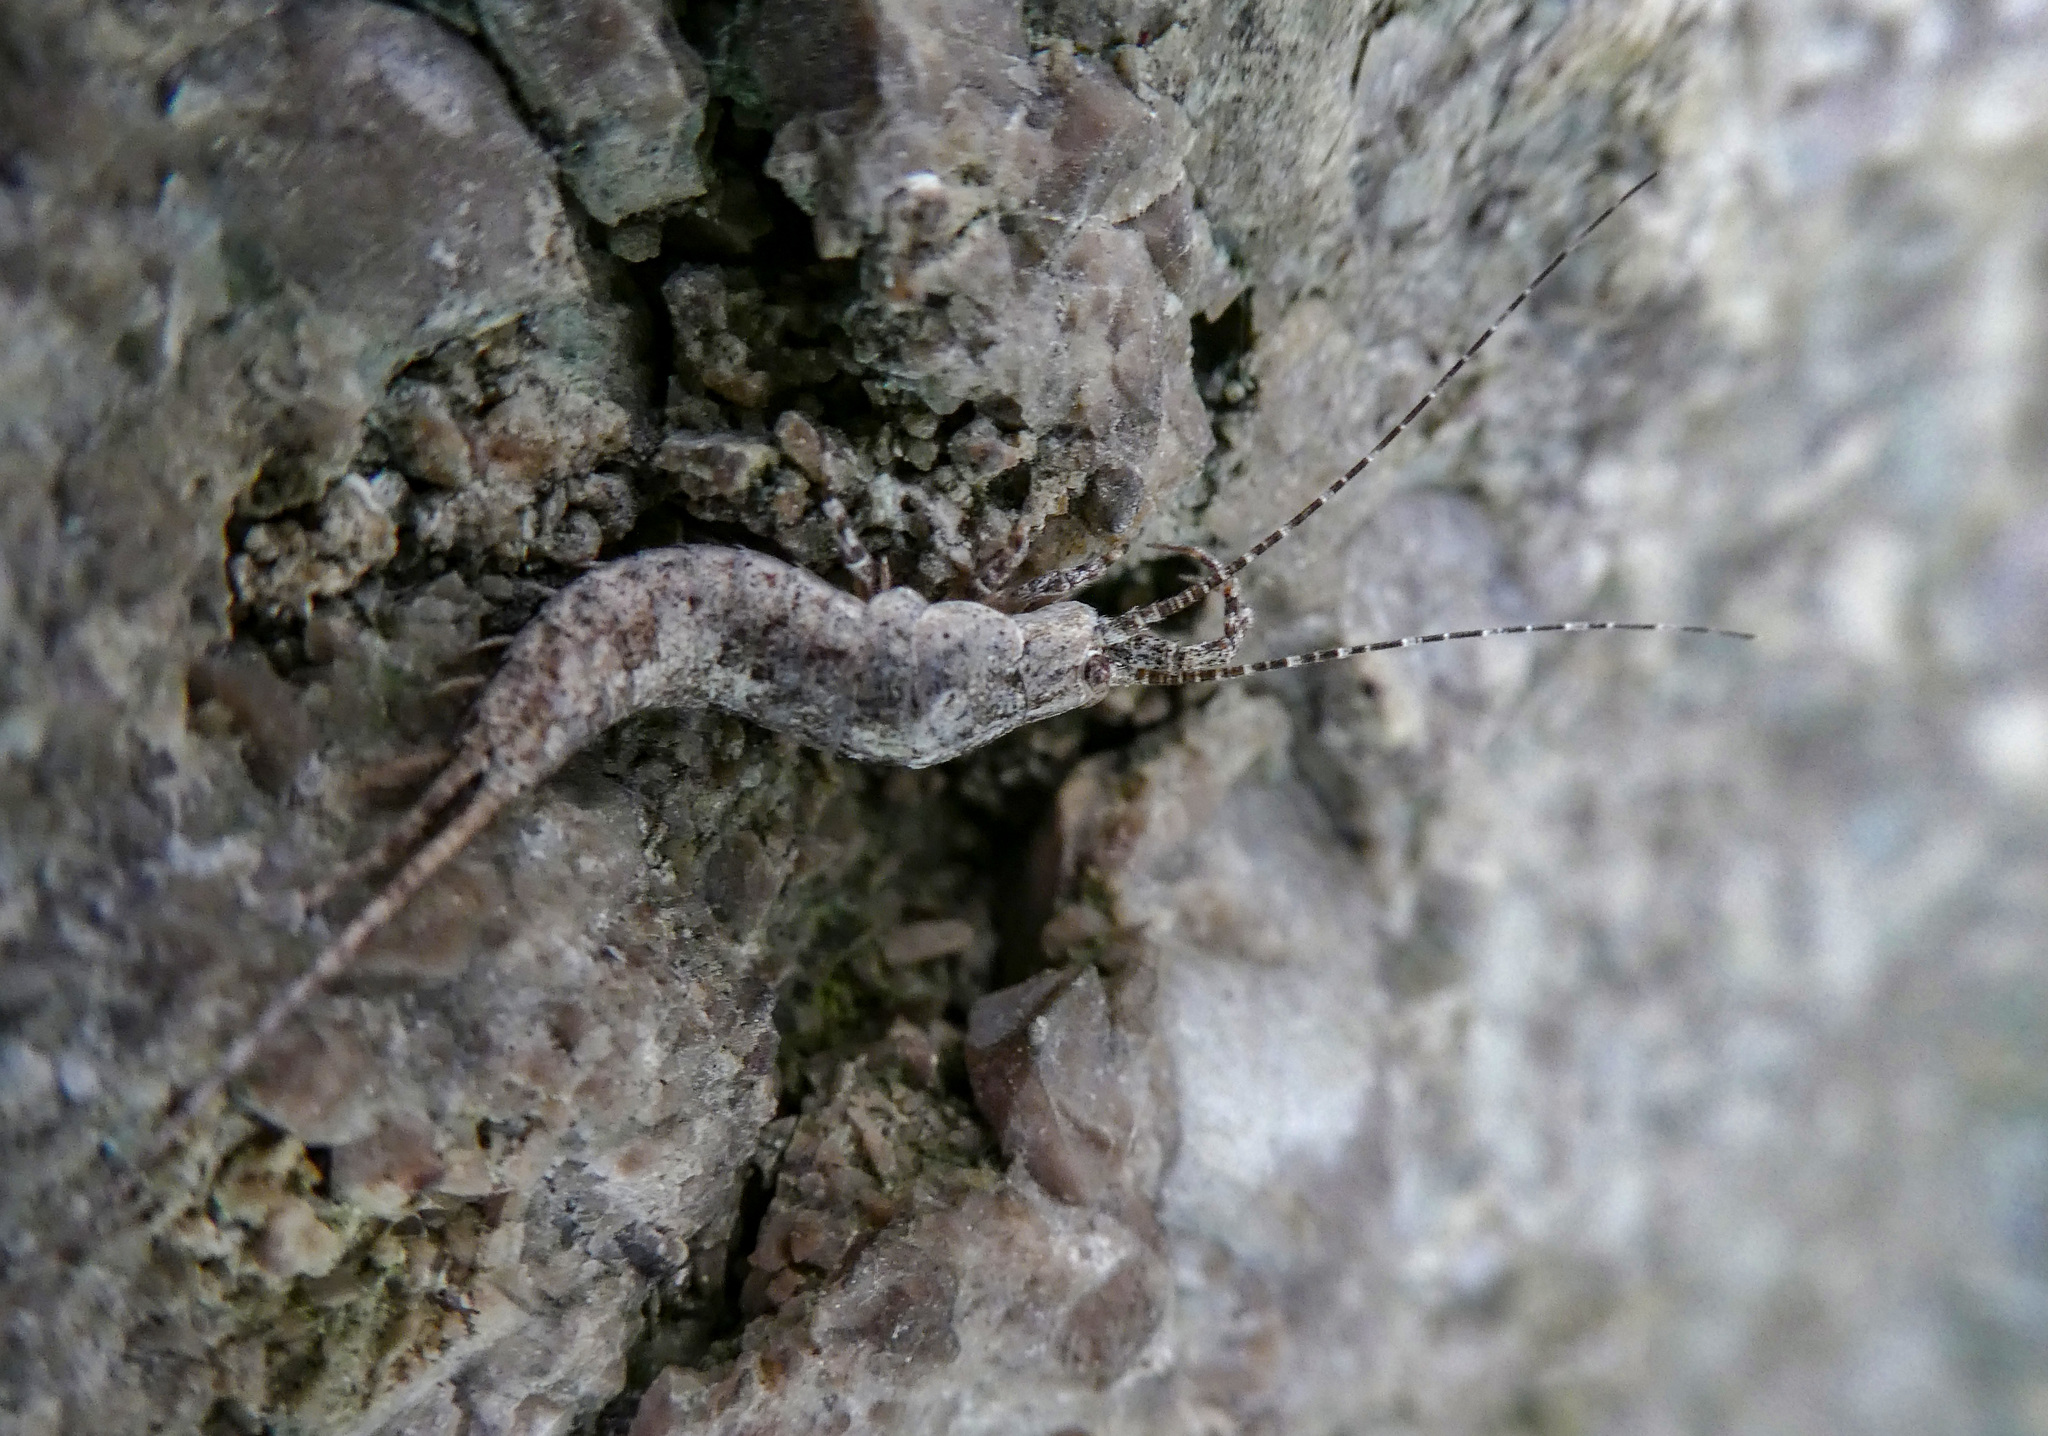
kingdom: Animalia
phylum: Arthropoda
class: Insecta
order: Archaeognatha
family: Machilidae
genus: Machilis
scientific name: Machilis
